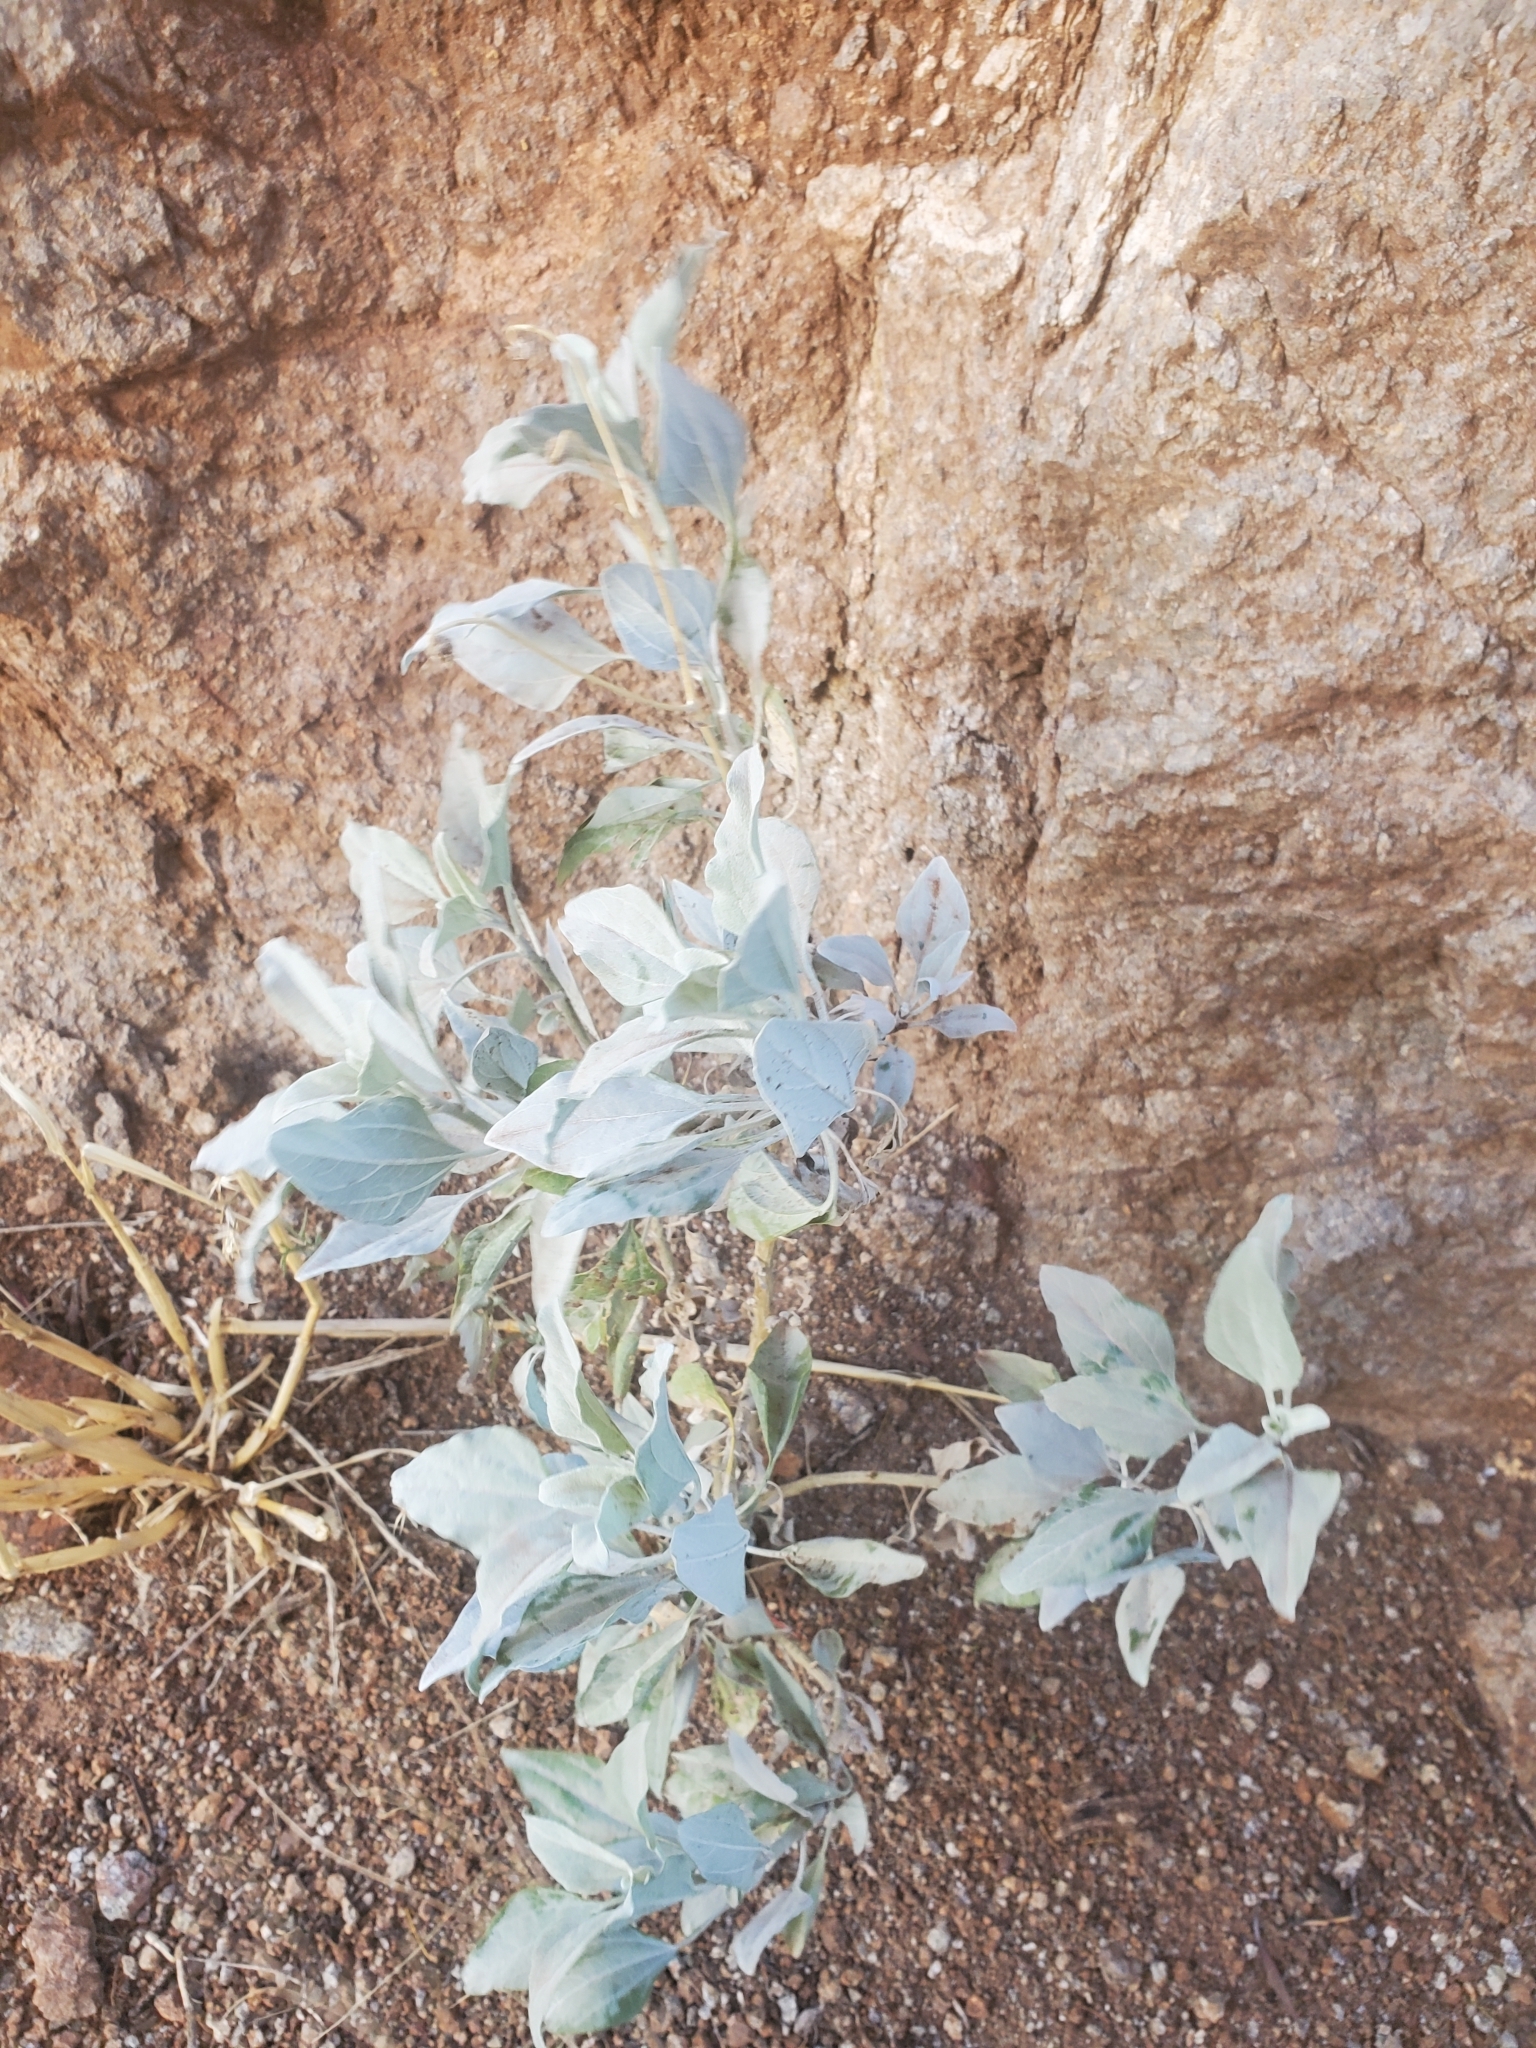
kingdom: Plantae
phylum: Tracheophyta
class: Magnoliopsida
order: Asterales
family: Asteraceae
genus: Encelia
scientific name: Encelia farinosa
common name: Brittlebush
